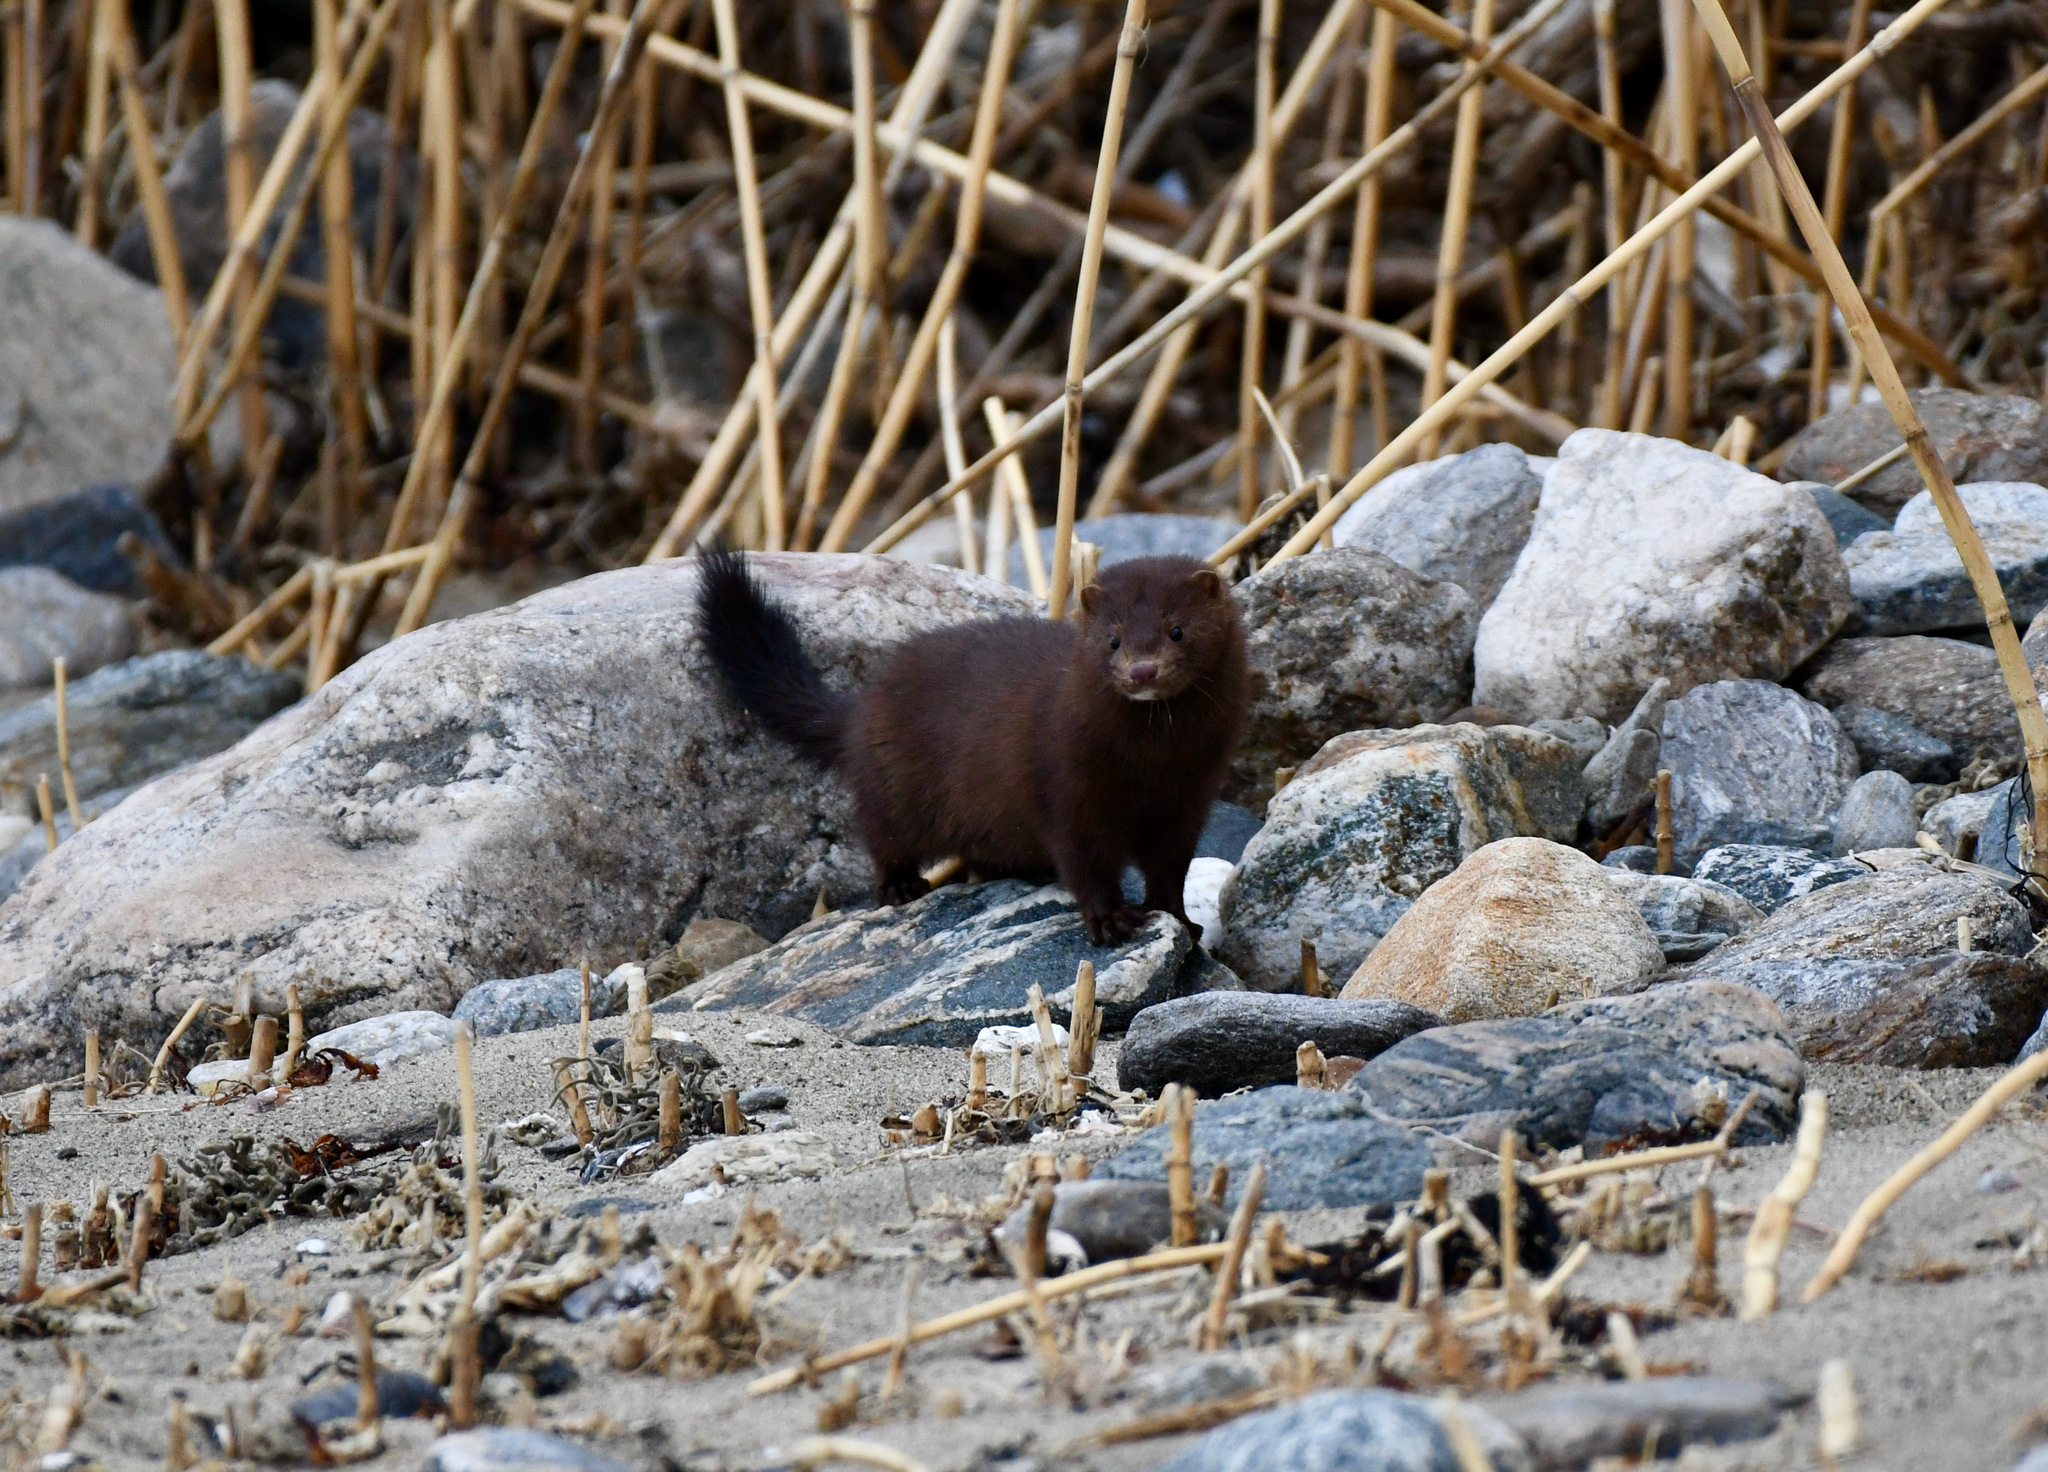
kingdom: Animalia
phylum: Chordata
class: Mammalia
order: Carnivora
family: Mustelidae
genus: Mustela
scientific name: Mustela
